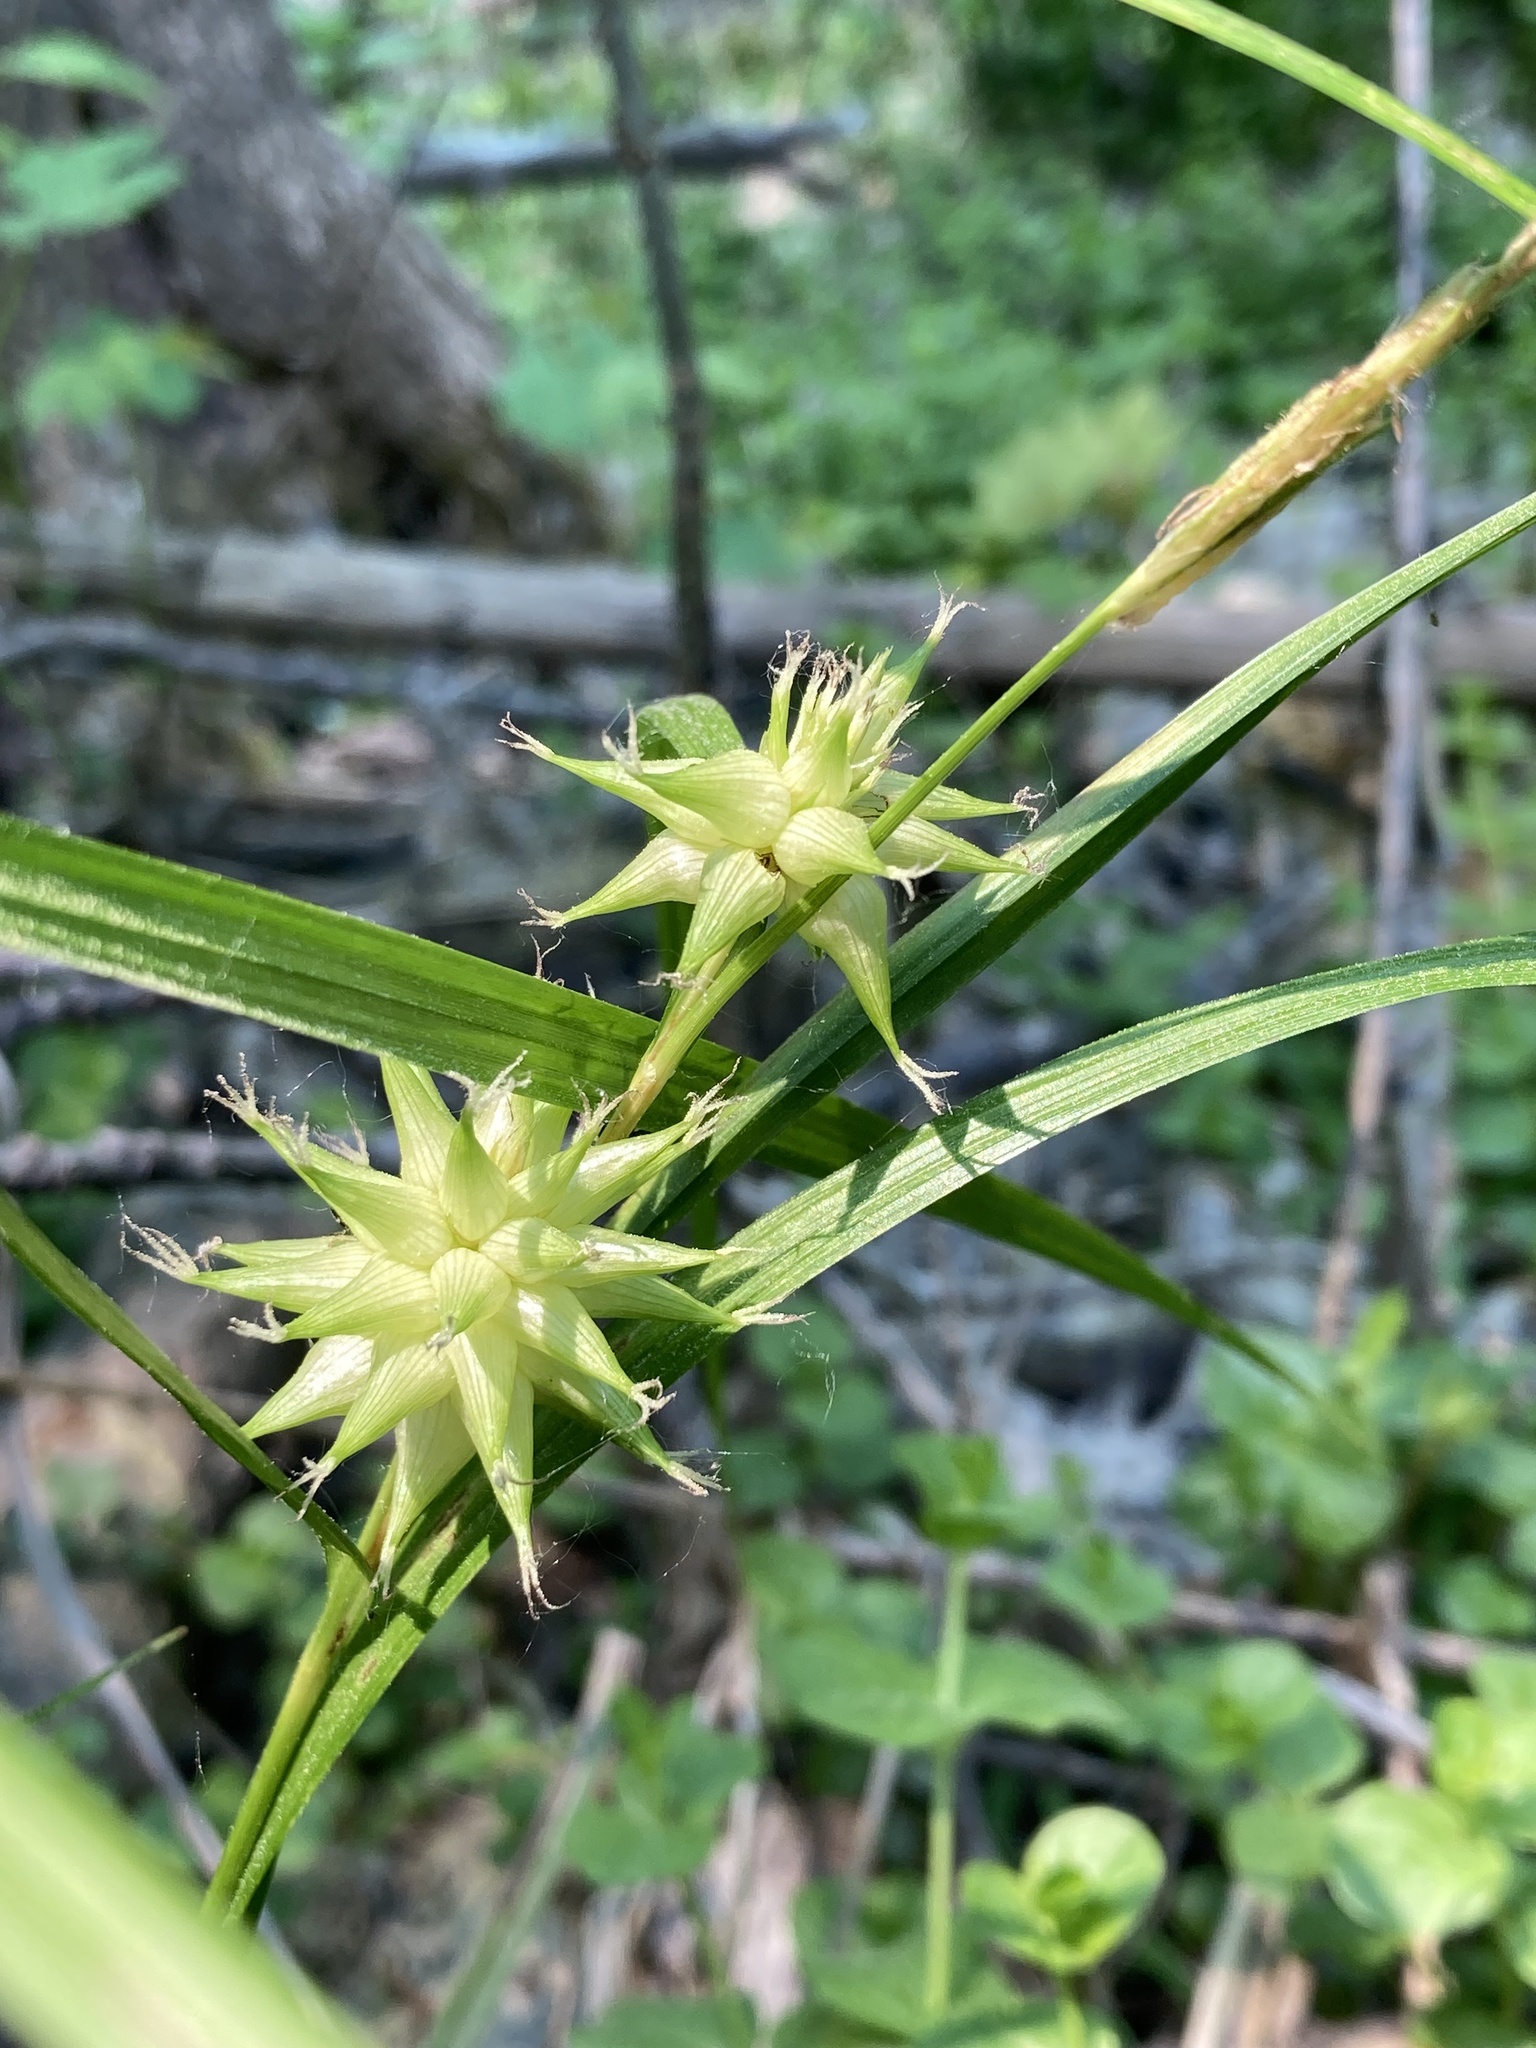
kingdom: Plantae
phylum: Tracheophyta
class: Liliopsida
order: Poales
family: Cyperaceae
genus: Carex
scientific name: Carex grayi
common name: Asa gray's sedge
